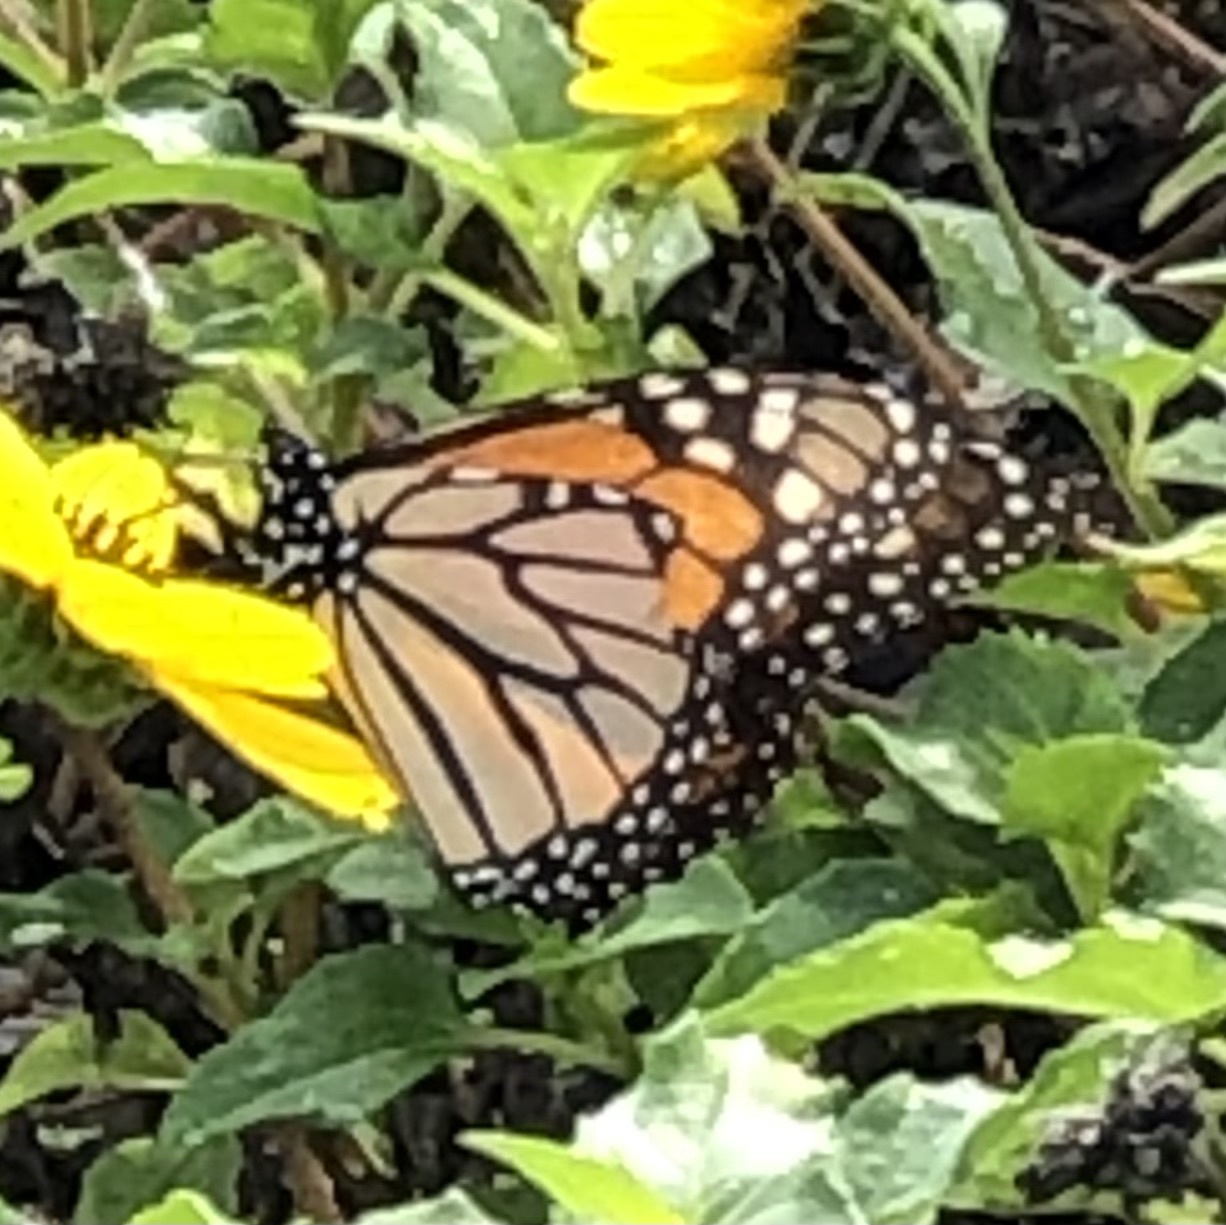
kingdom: Animalia
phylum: Arthropoda
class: Insecta
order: Lepidoptera
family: Nymphalidae
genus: Danaus
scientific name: Danaus plexippus
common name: Monarch
